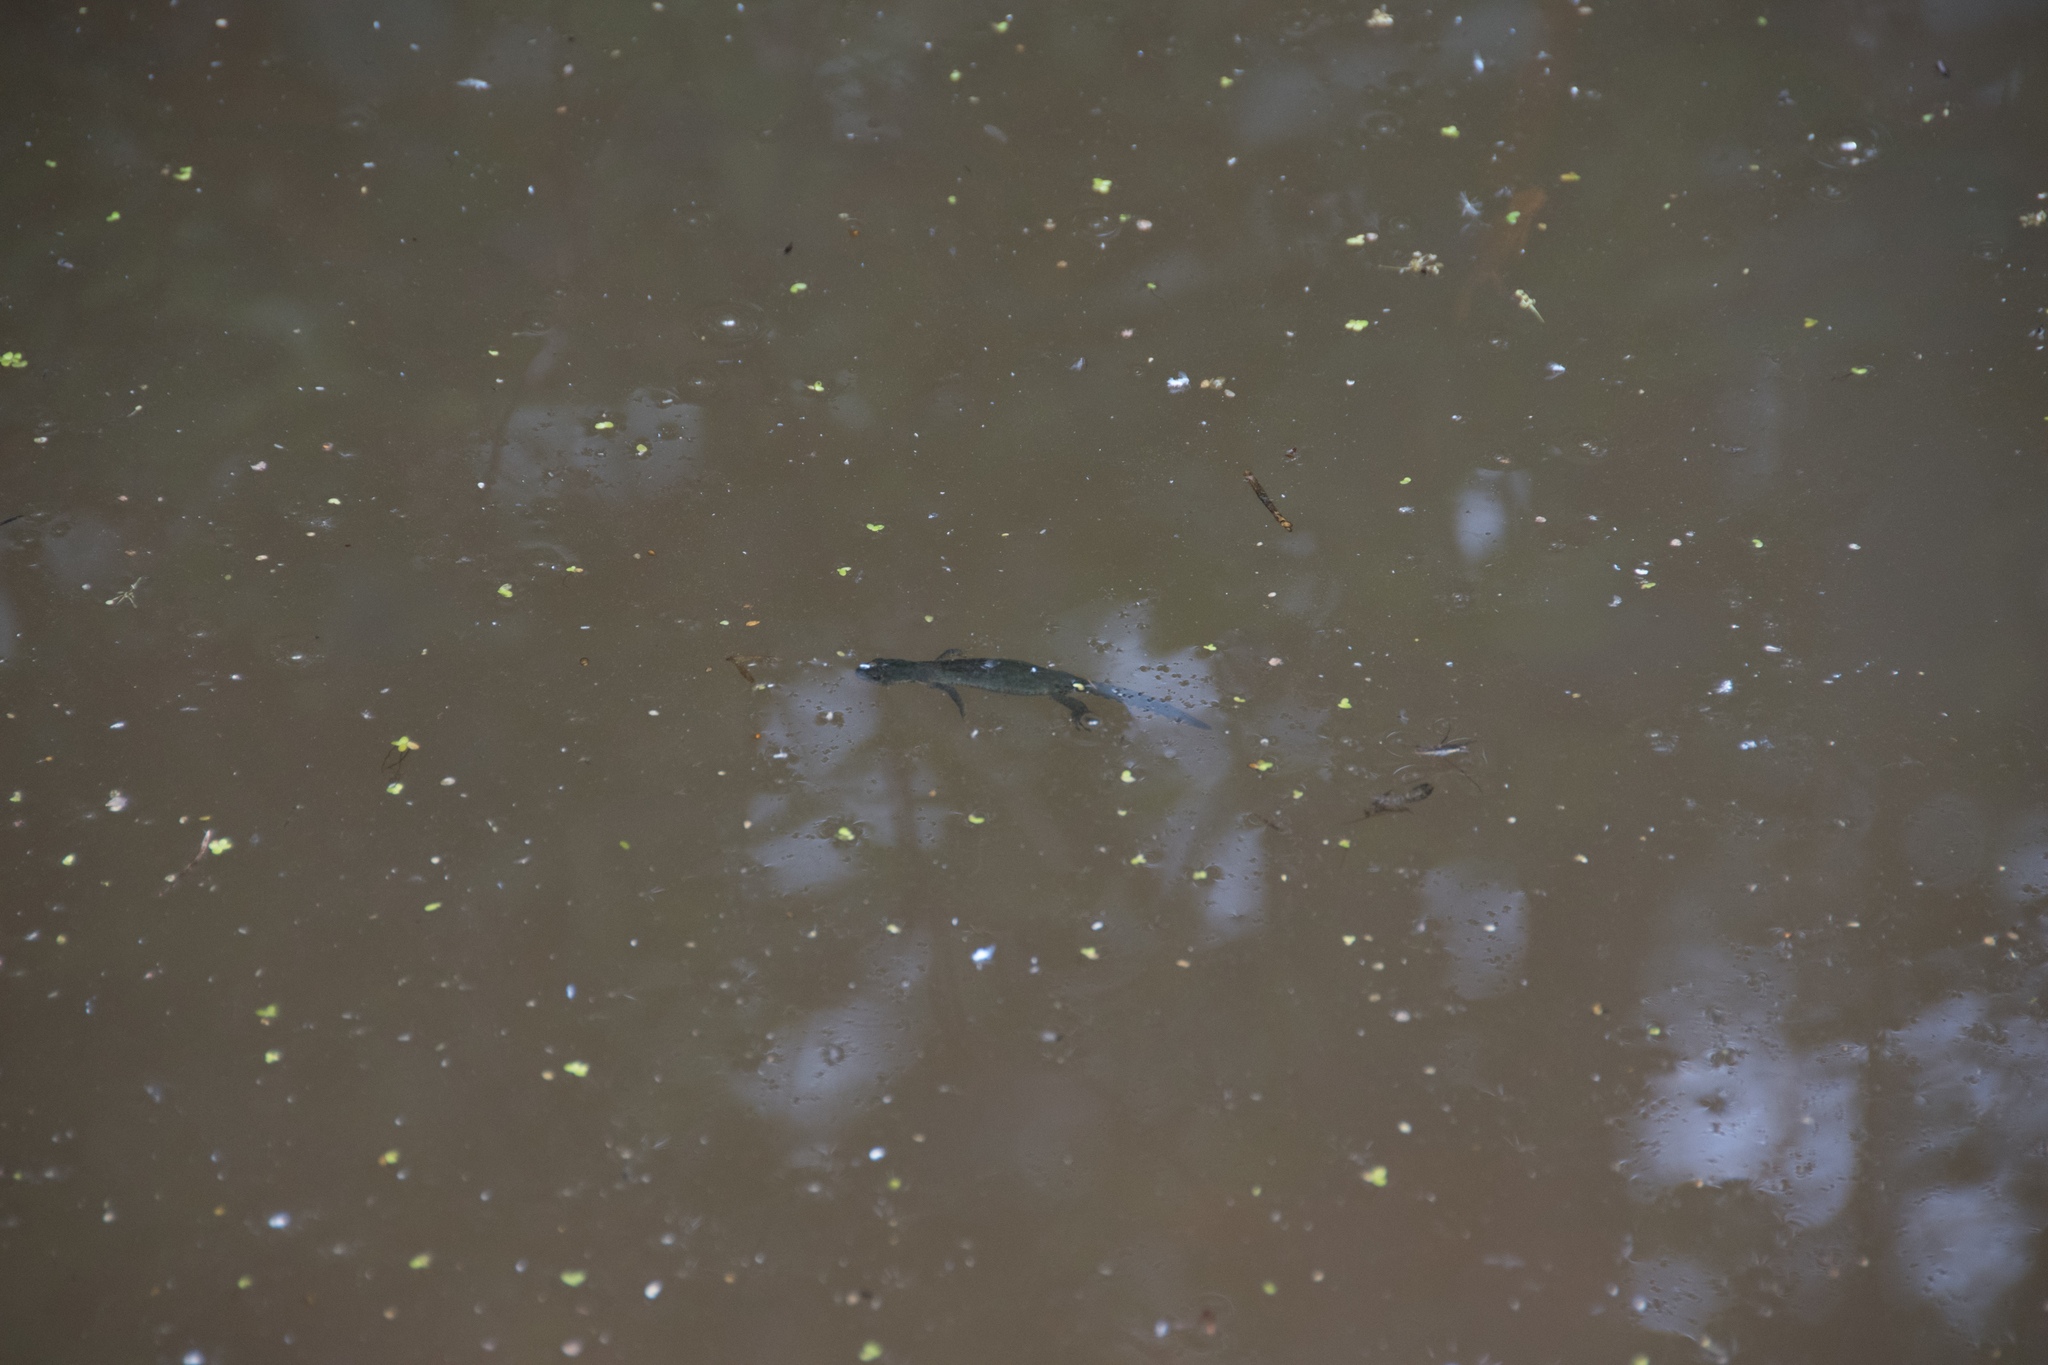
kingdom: Animalia
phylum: Chordata
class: Amphibia
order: Caudata
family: Salamandridae
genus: Ichthyosaura
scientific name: Ichthyosaura alpestris
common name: Alpine newt
